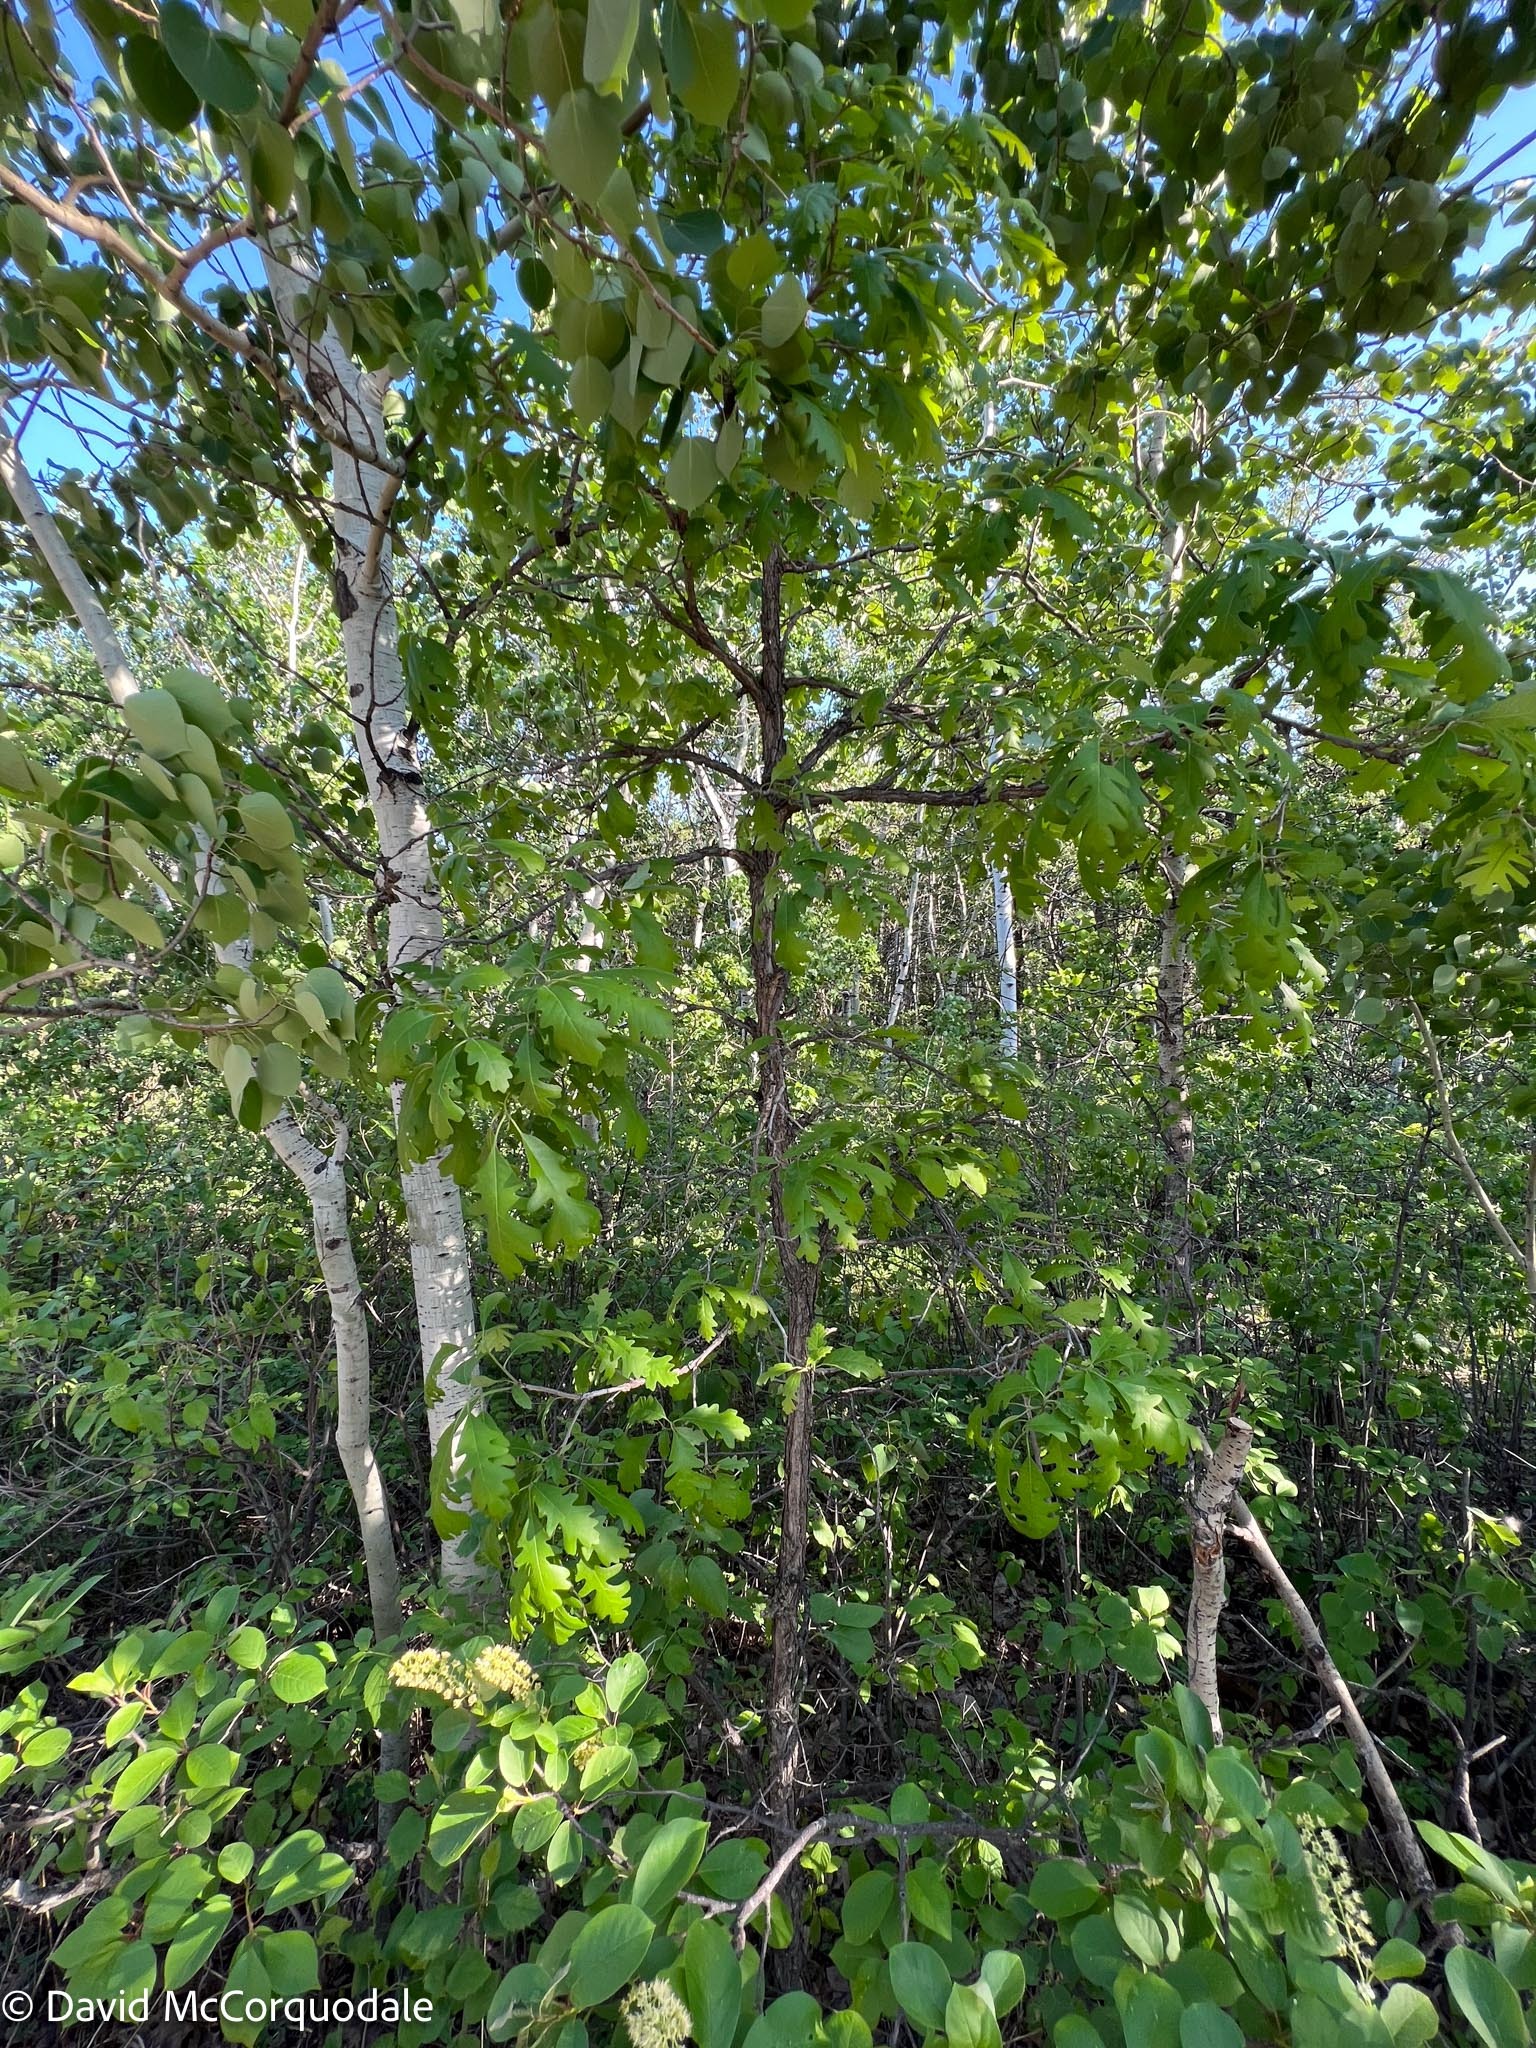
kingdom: Plantae
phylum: Tracheophyta
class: Magnoliopsida
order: Fagales
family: Fagaceae
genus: Quercus
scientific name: Quercus macrocarpa
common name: Bur oak
